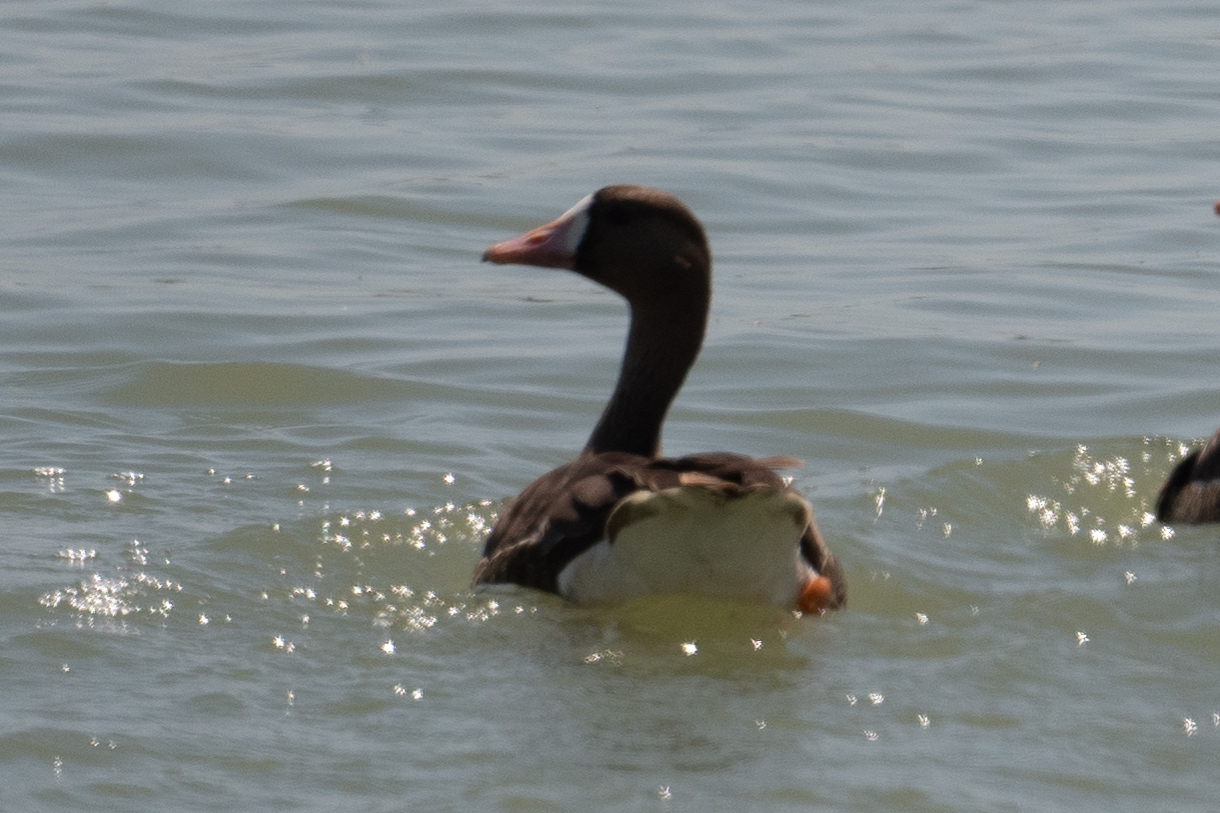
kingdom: Animalia
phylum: Chordata
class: Aves
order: Anseriformes
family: Anatidae
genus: Anser
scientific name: Anser albifrons
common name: Greater white-fronted goose
